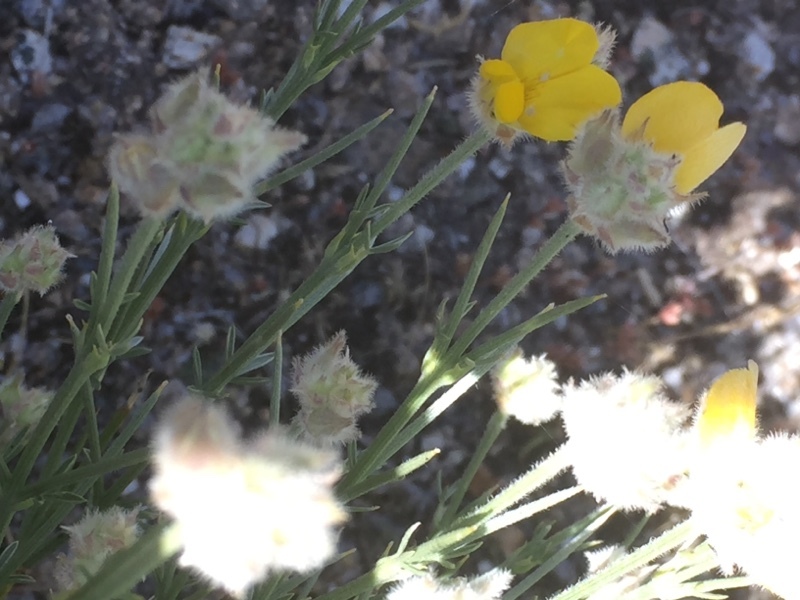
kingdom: Plantae
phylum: Tracheophyta
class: Magnoliopsida
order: Fabales
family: Fabaceae
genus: Echinospartum
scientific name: Echinospartum ibericum
